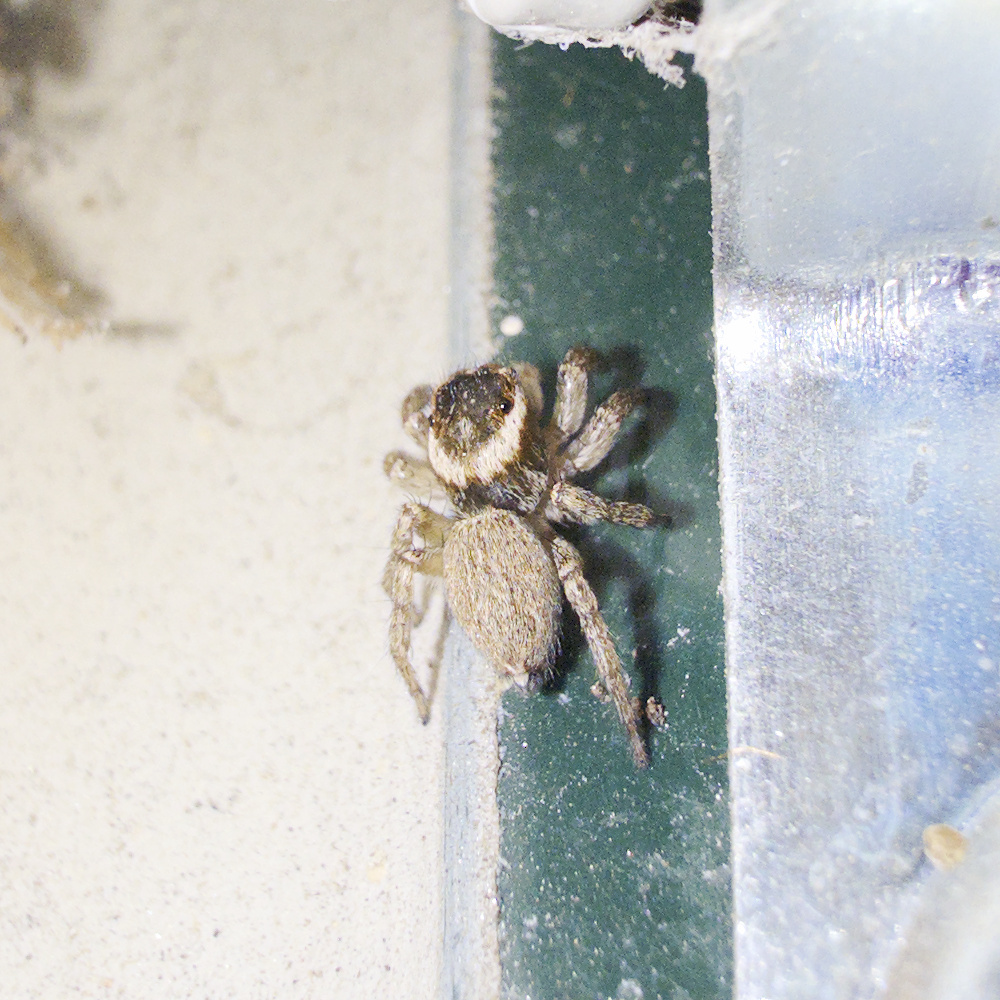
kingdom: Animalia
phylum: Arthropoda
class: Arachnida
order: Araneae
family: Salticidae
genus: Maratus
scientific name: Maratus griseus
